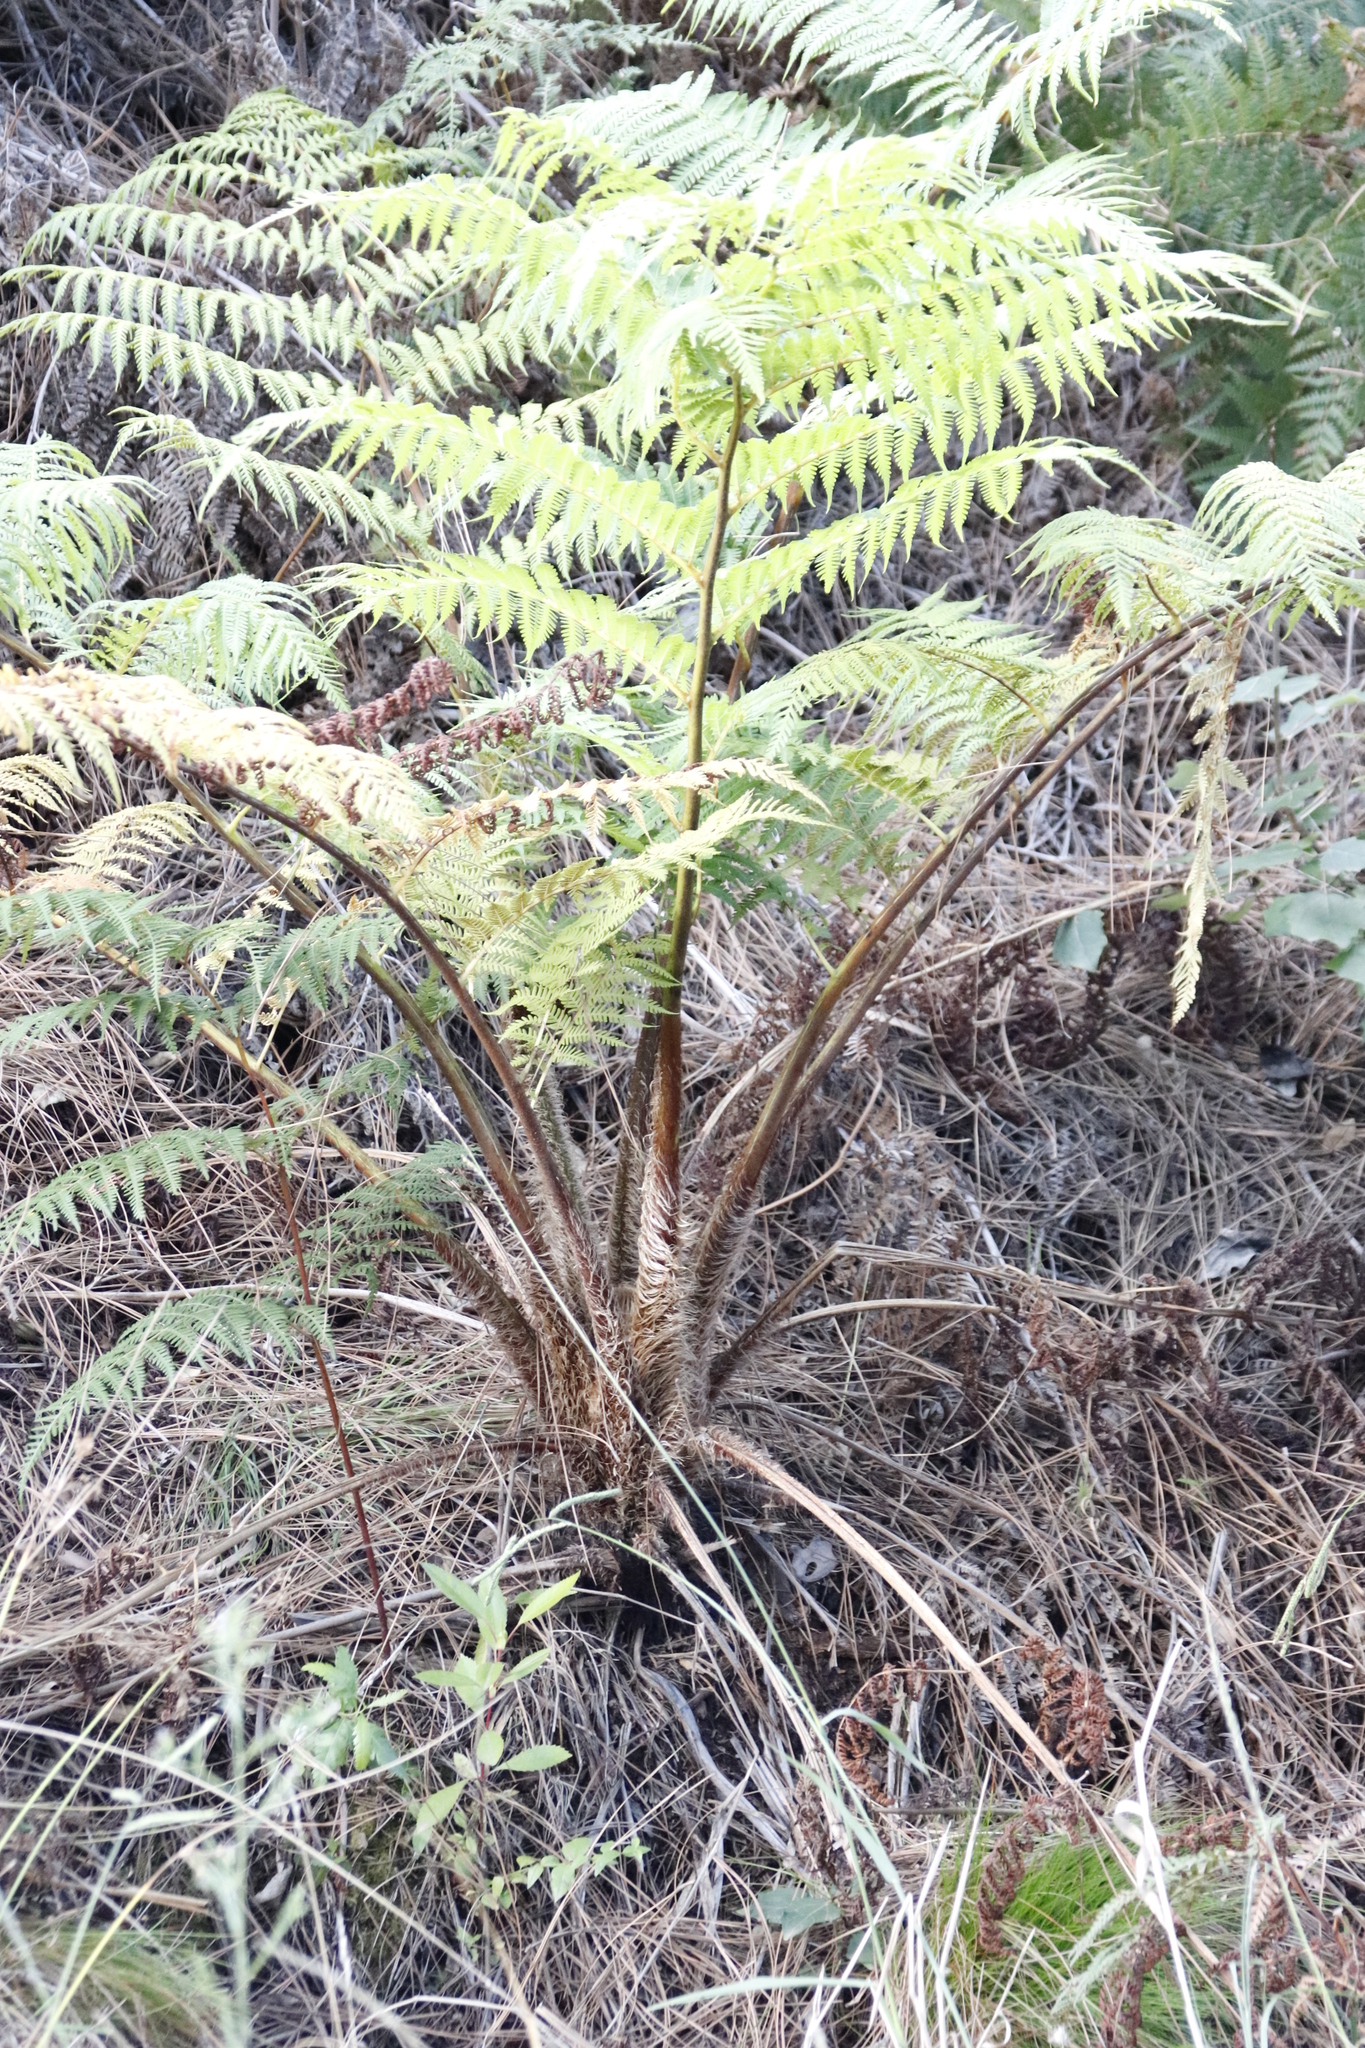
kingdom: Plantae
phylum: Tracheophyta
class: Polypodiopsida
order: Cyatheales
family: Cyatheaceae
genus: Sphaeropteris
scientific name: Sphaeropteris cooperi
